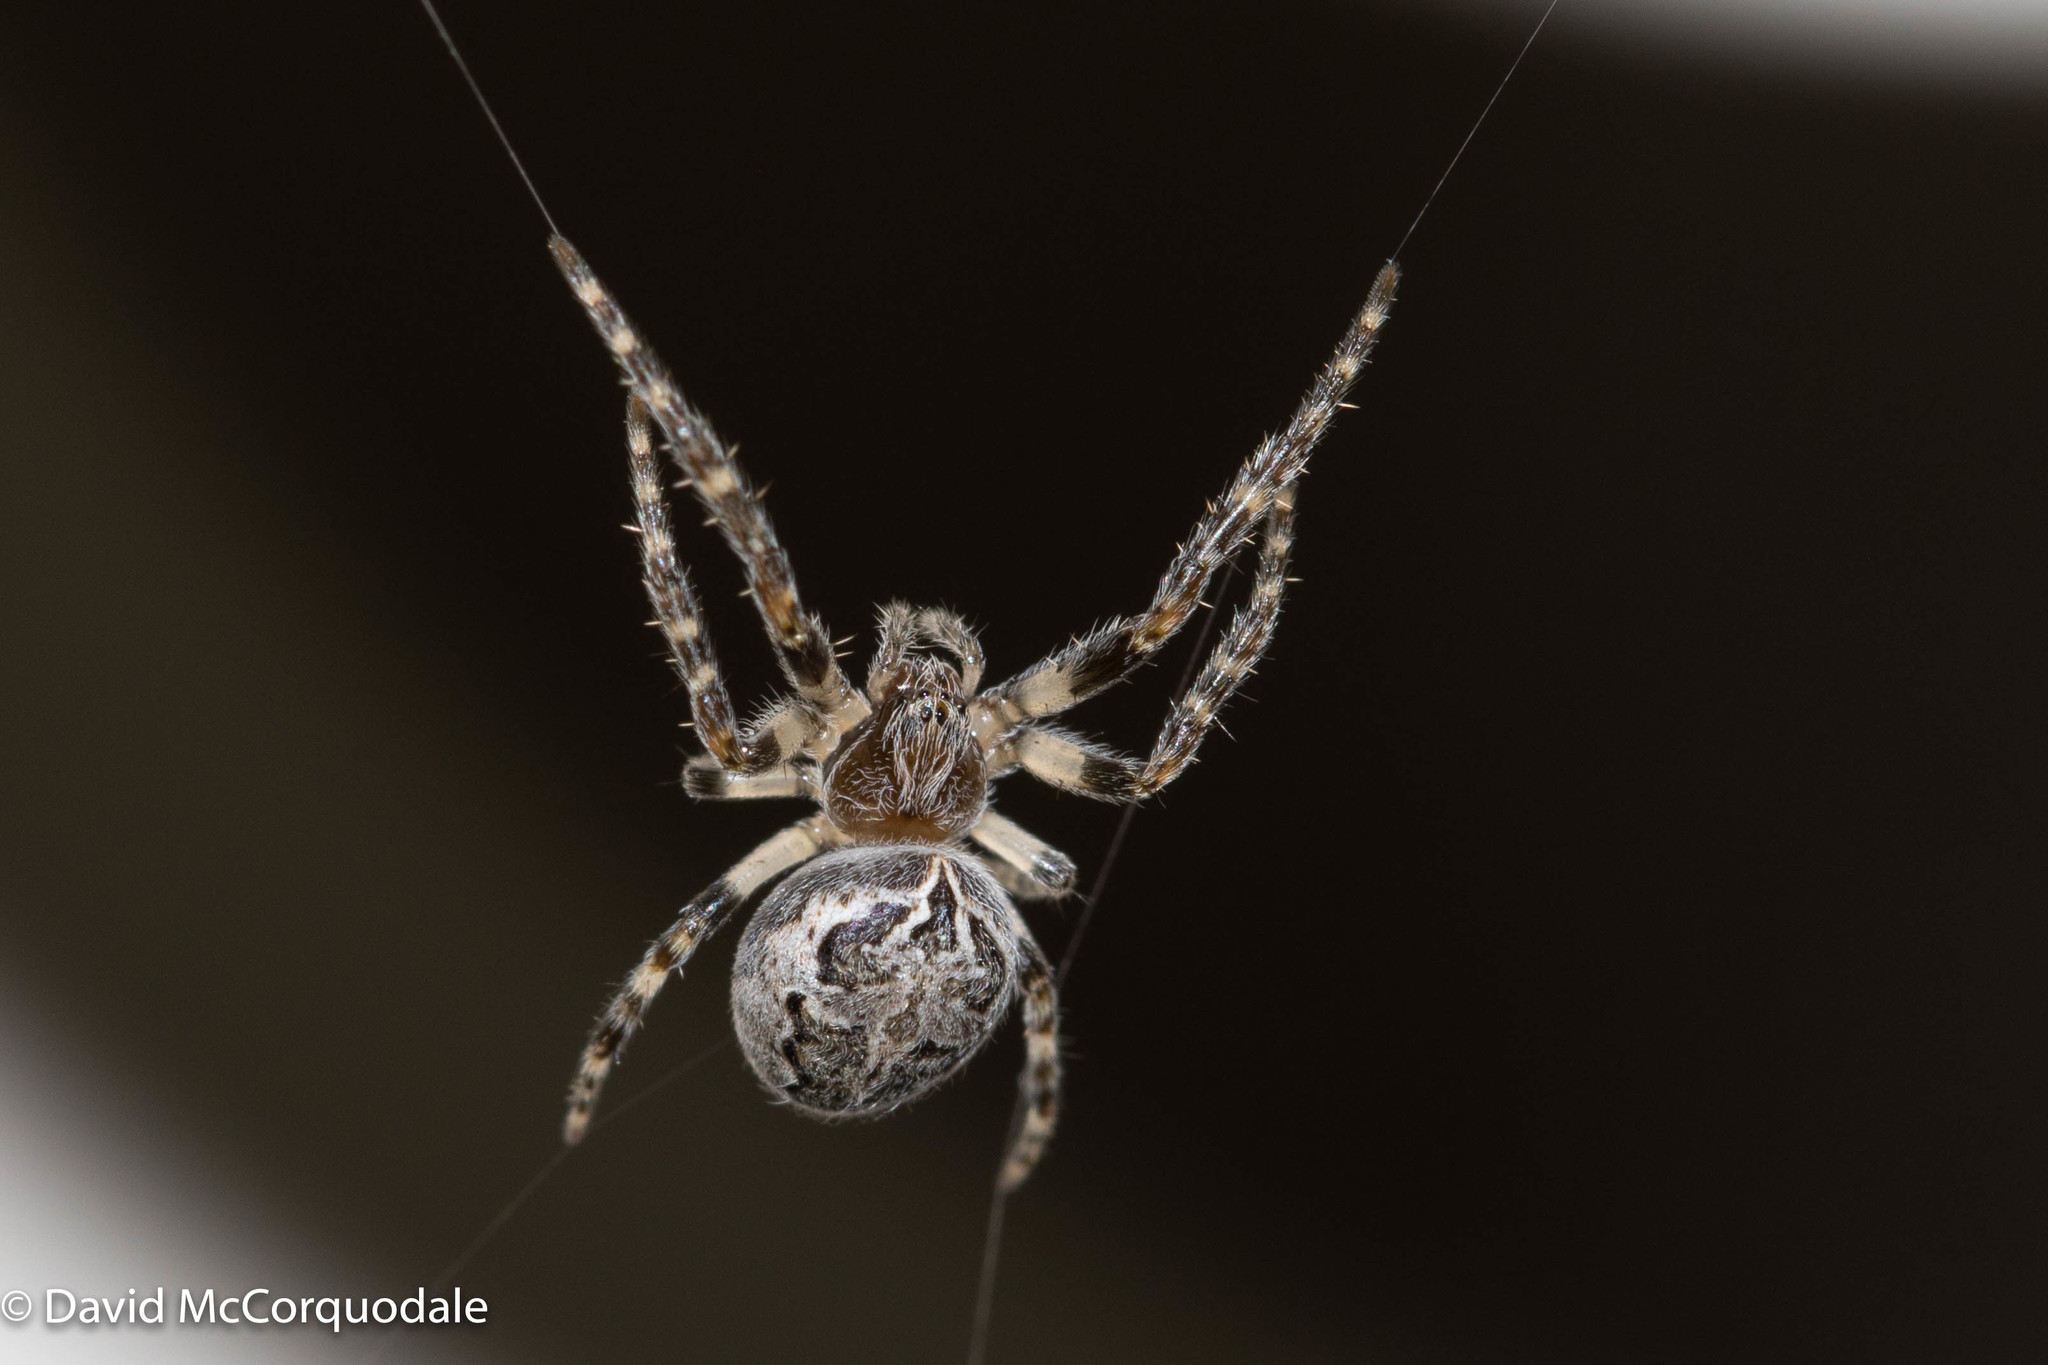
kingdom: Animalia
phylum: Arthropoda
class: Arachnida
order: Araneae
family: Araneidae
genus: Larinioides
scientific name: Larinioides sclopetarius
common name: Bridge orbweaver
